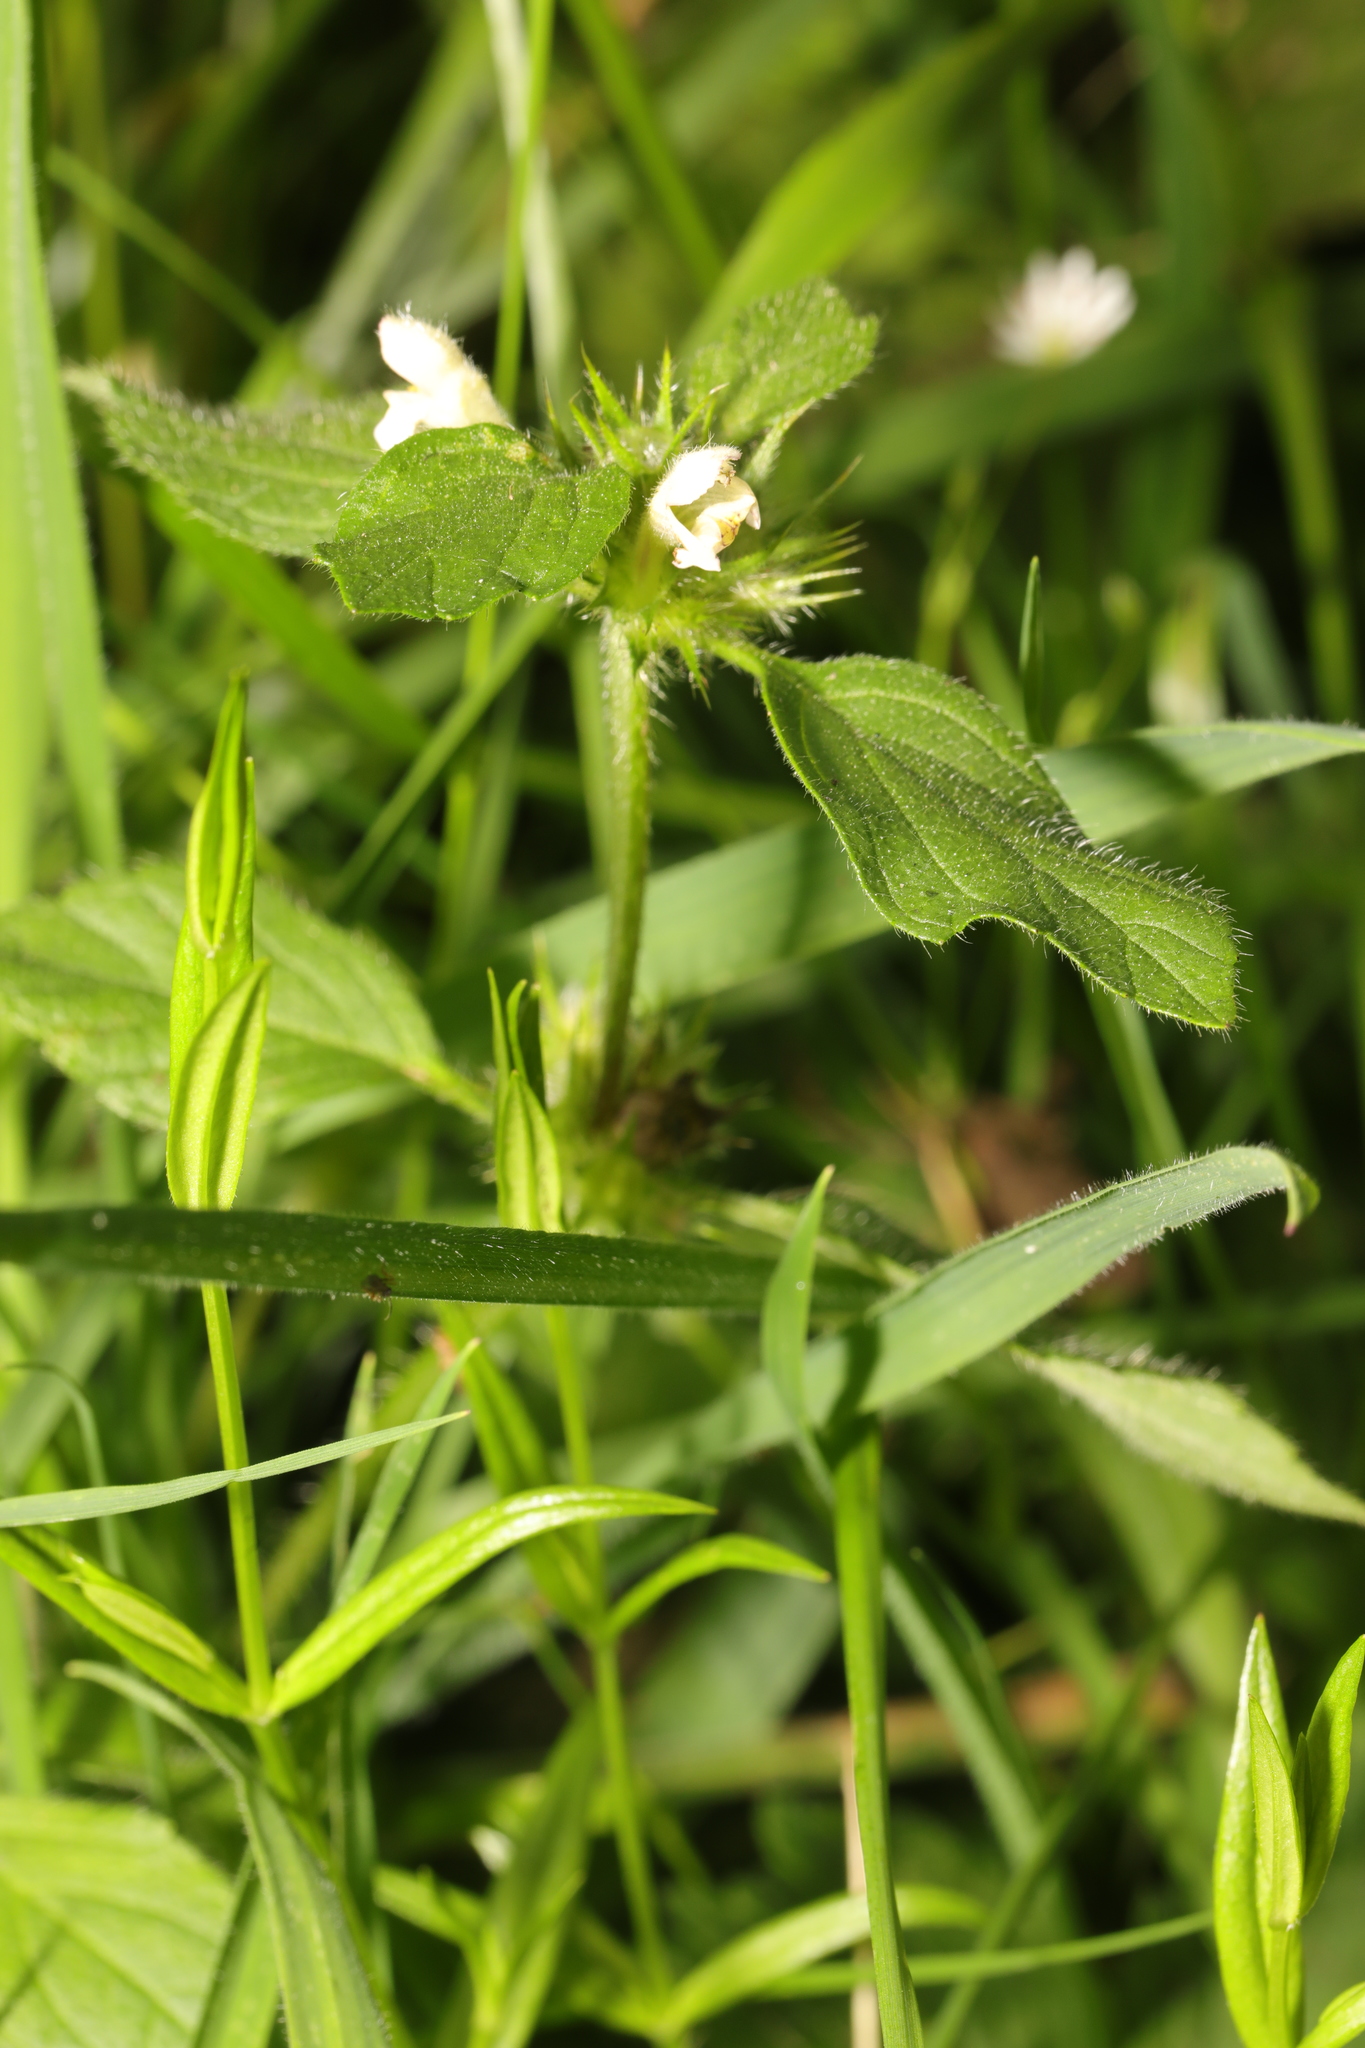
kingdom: Plantae
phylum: Tracheophyta
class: Magnoliopsida
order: Lamiales
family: Lamiaceae
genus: Galeopsis
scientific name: Galeopsis tetrahit
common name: Common hemp-nettle
